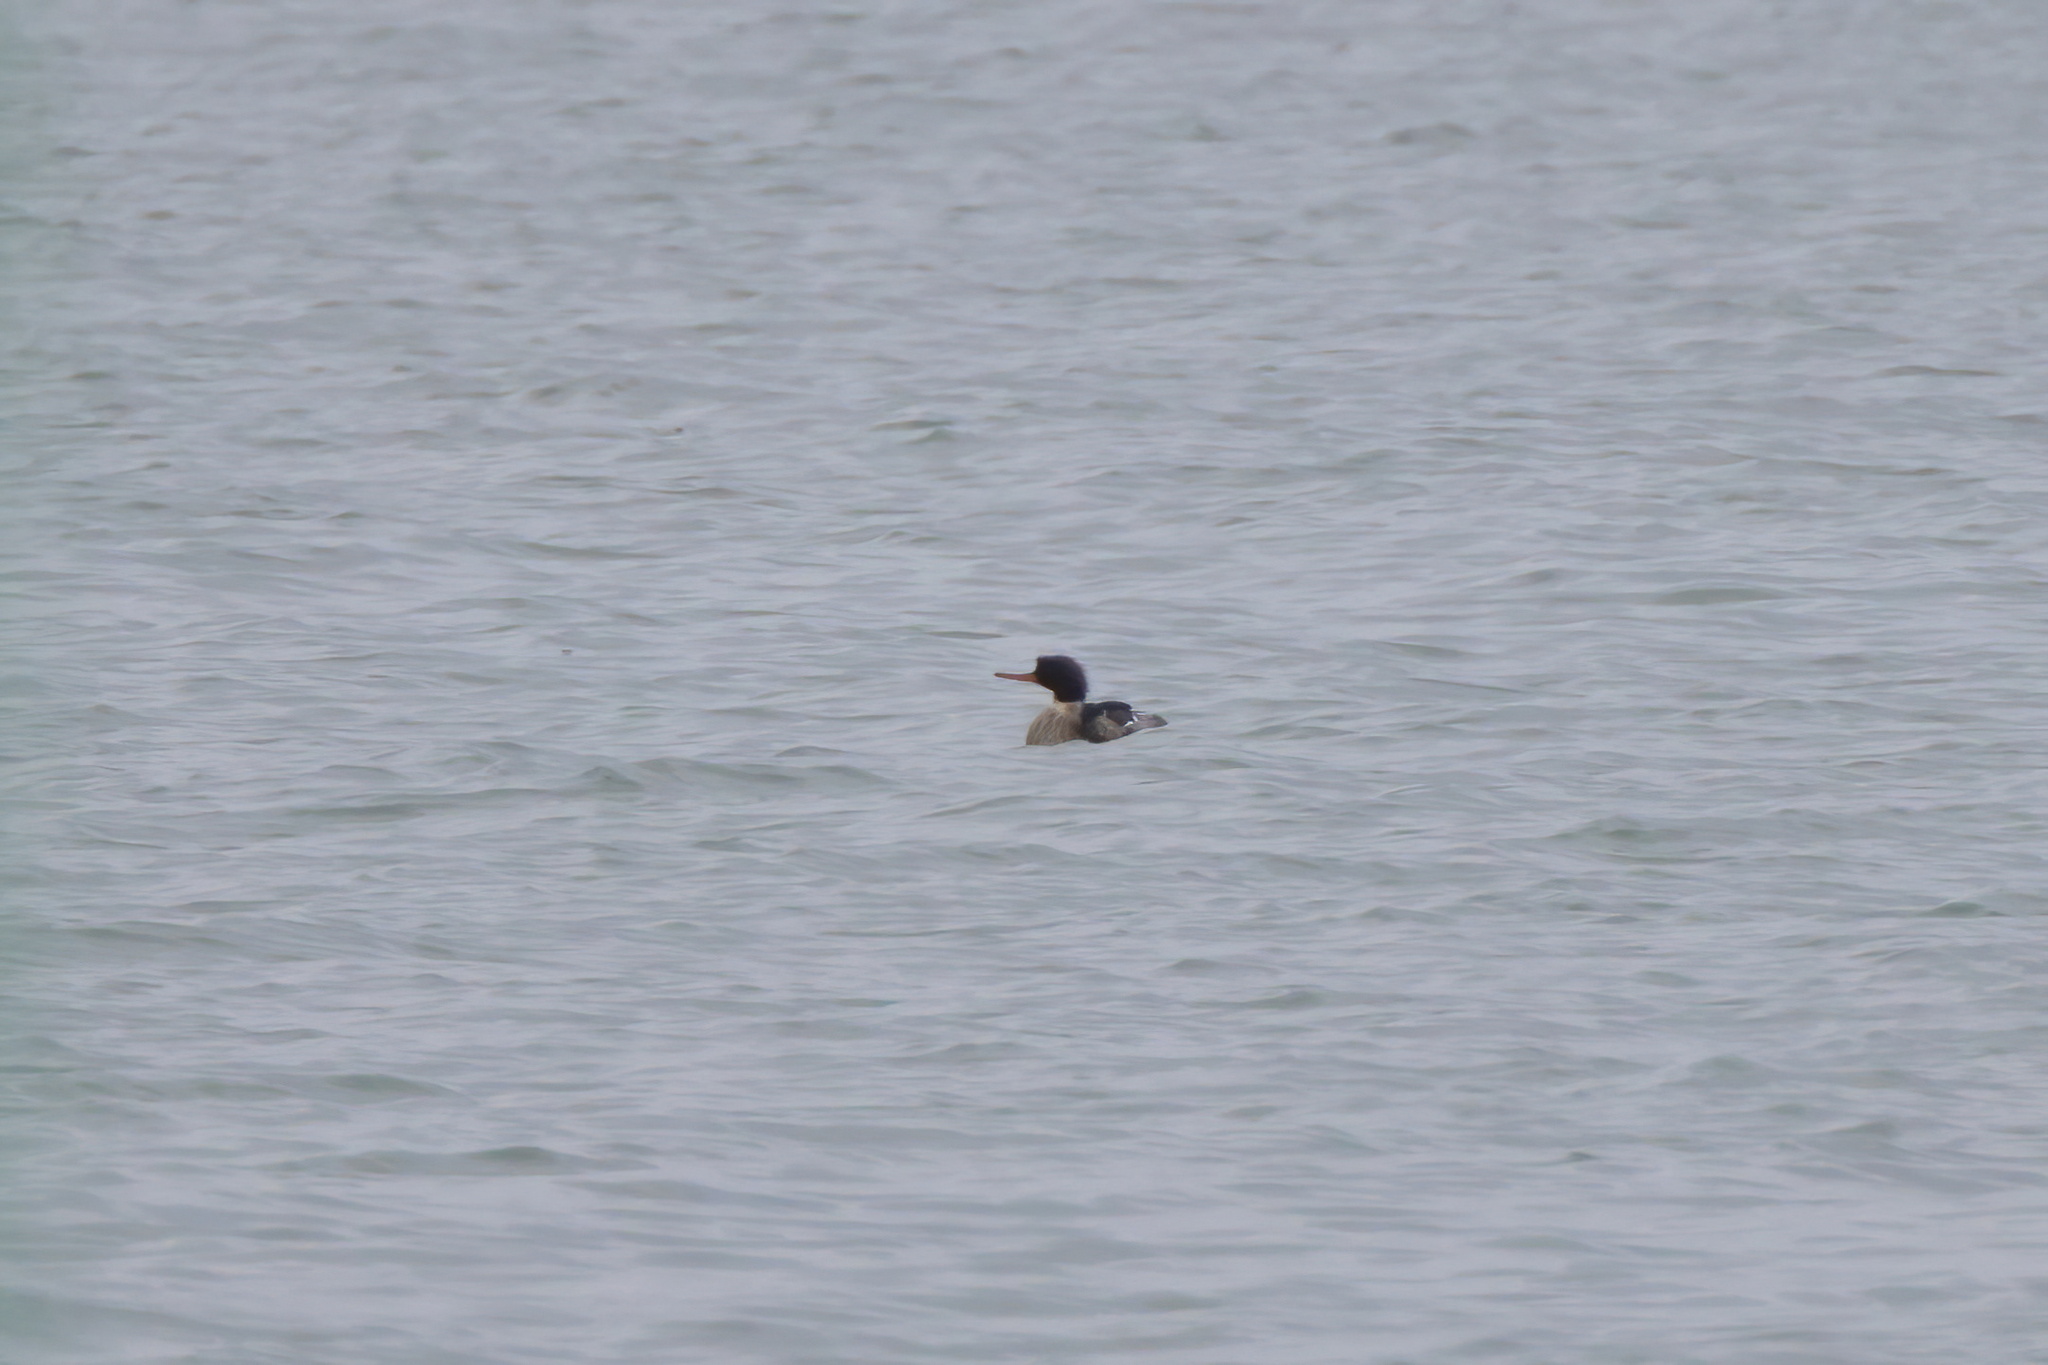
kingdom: Animalia
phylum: Chordata
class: Aves
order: Anseriformes
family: Anatidae
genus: Mergus
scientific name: Mergus serrator
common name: Red-breasted merganser
